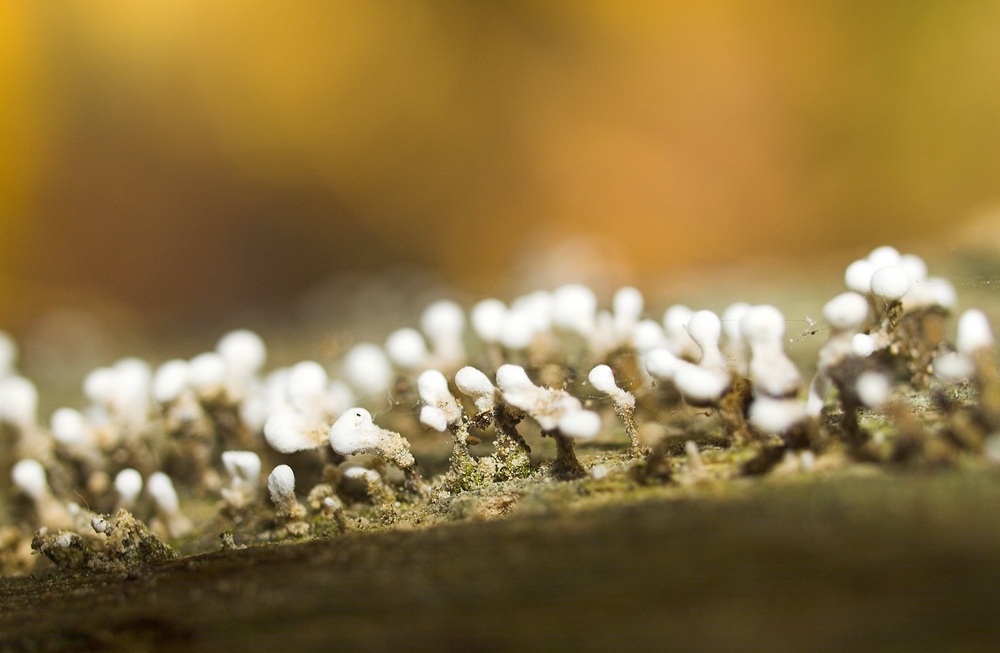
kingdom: Fungi
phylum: Basidiomycota
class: Atractiellomycetes
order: Atractiellales
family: Phleogenaceae
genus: Phleogena
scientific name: Phleogena faginea
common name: Fenugreek stalkball
